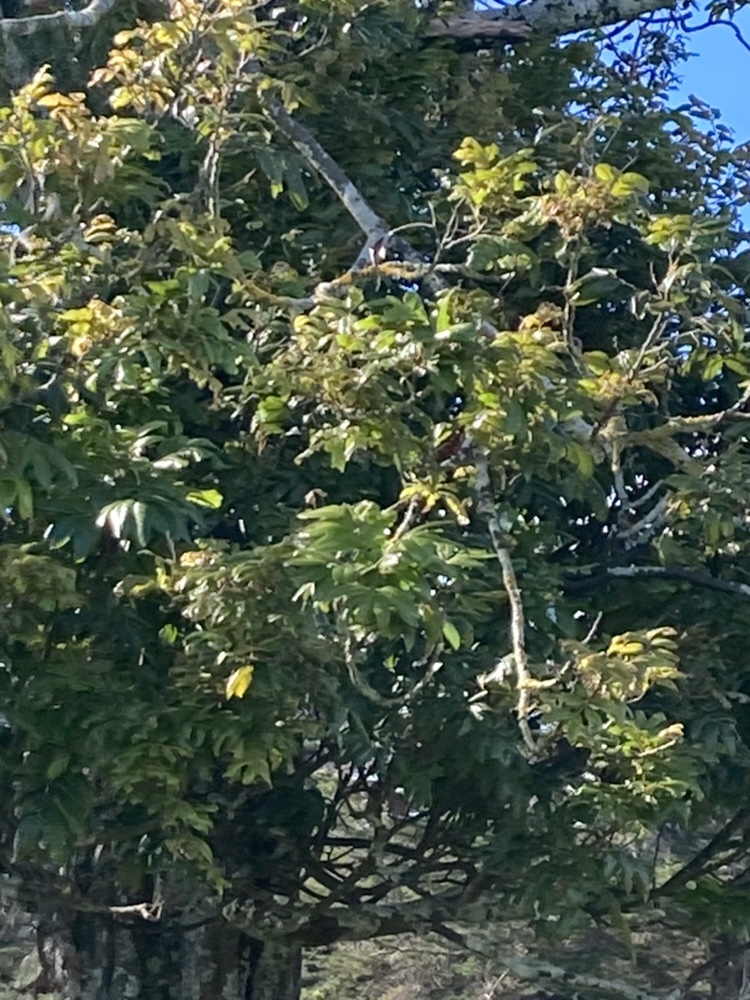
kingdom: Plantae
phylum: Tracheophyta
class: Magnoliopsida
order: Sapindales
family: Sapindaceae
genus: Alectryon
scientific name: Alectryon excelsus
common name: Three kings titoki
